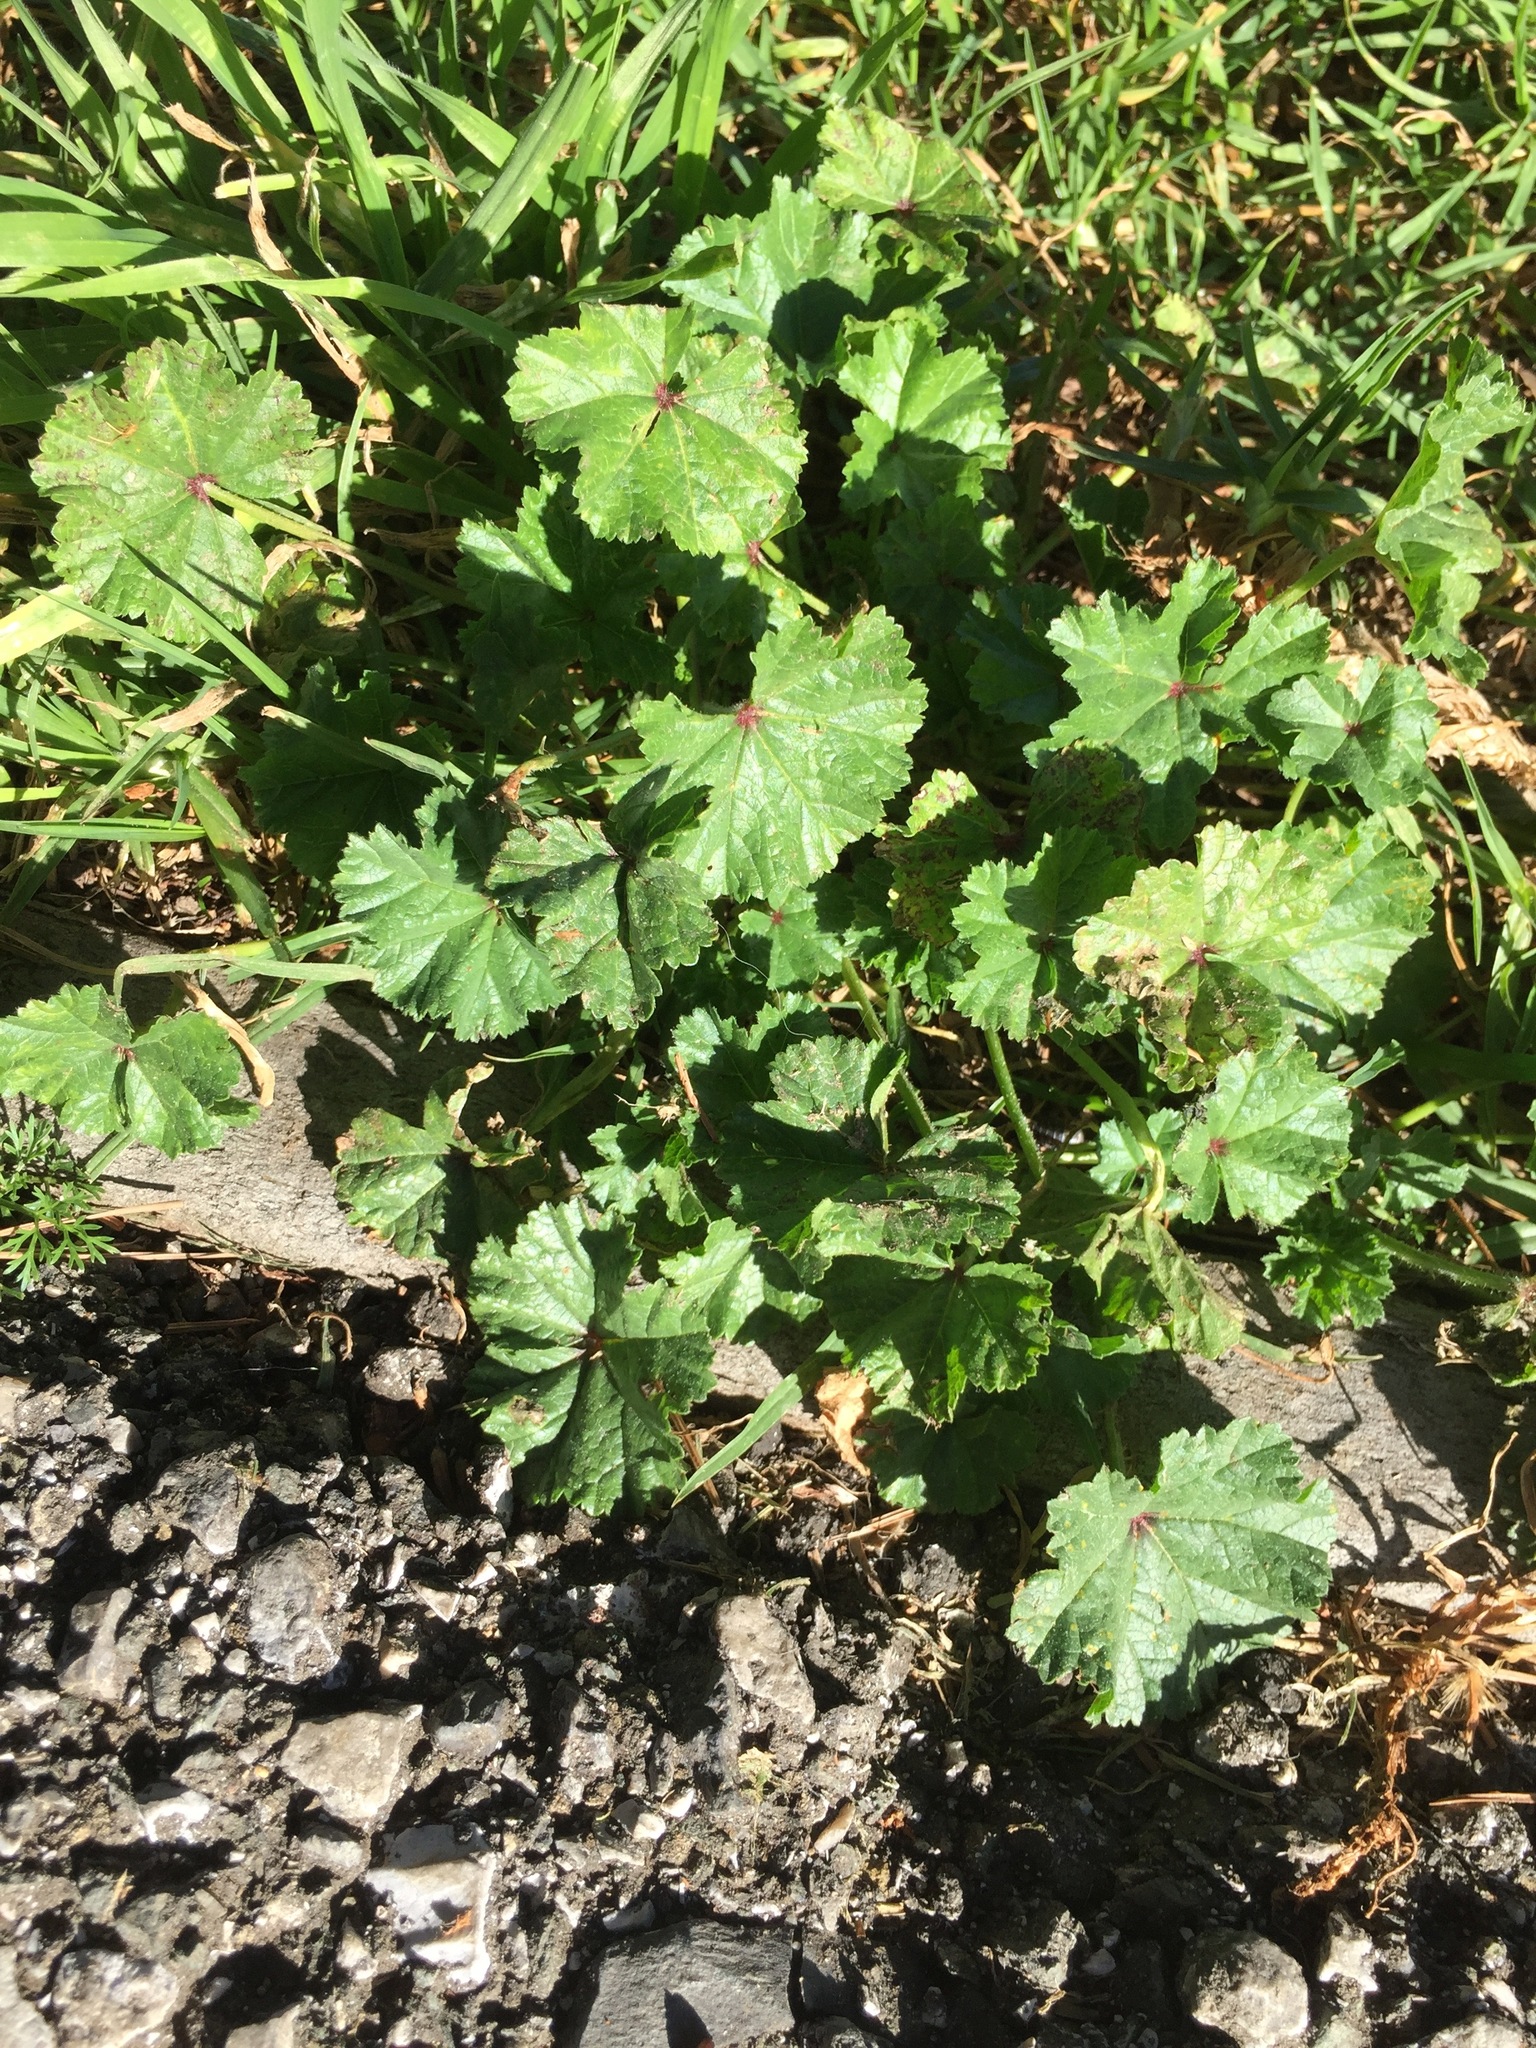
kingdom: Plantae
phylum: Tracheophyta
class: Magnoliopsida
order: Malvales
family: Malvaceae
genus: Malva
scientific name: Malva
